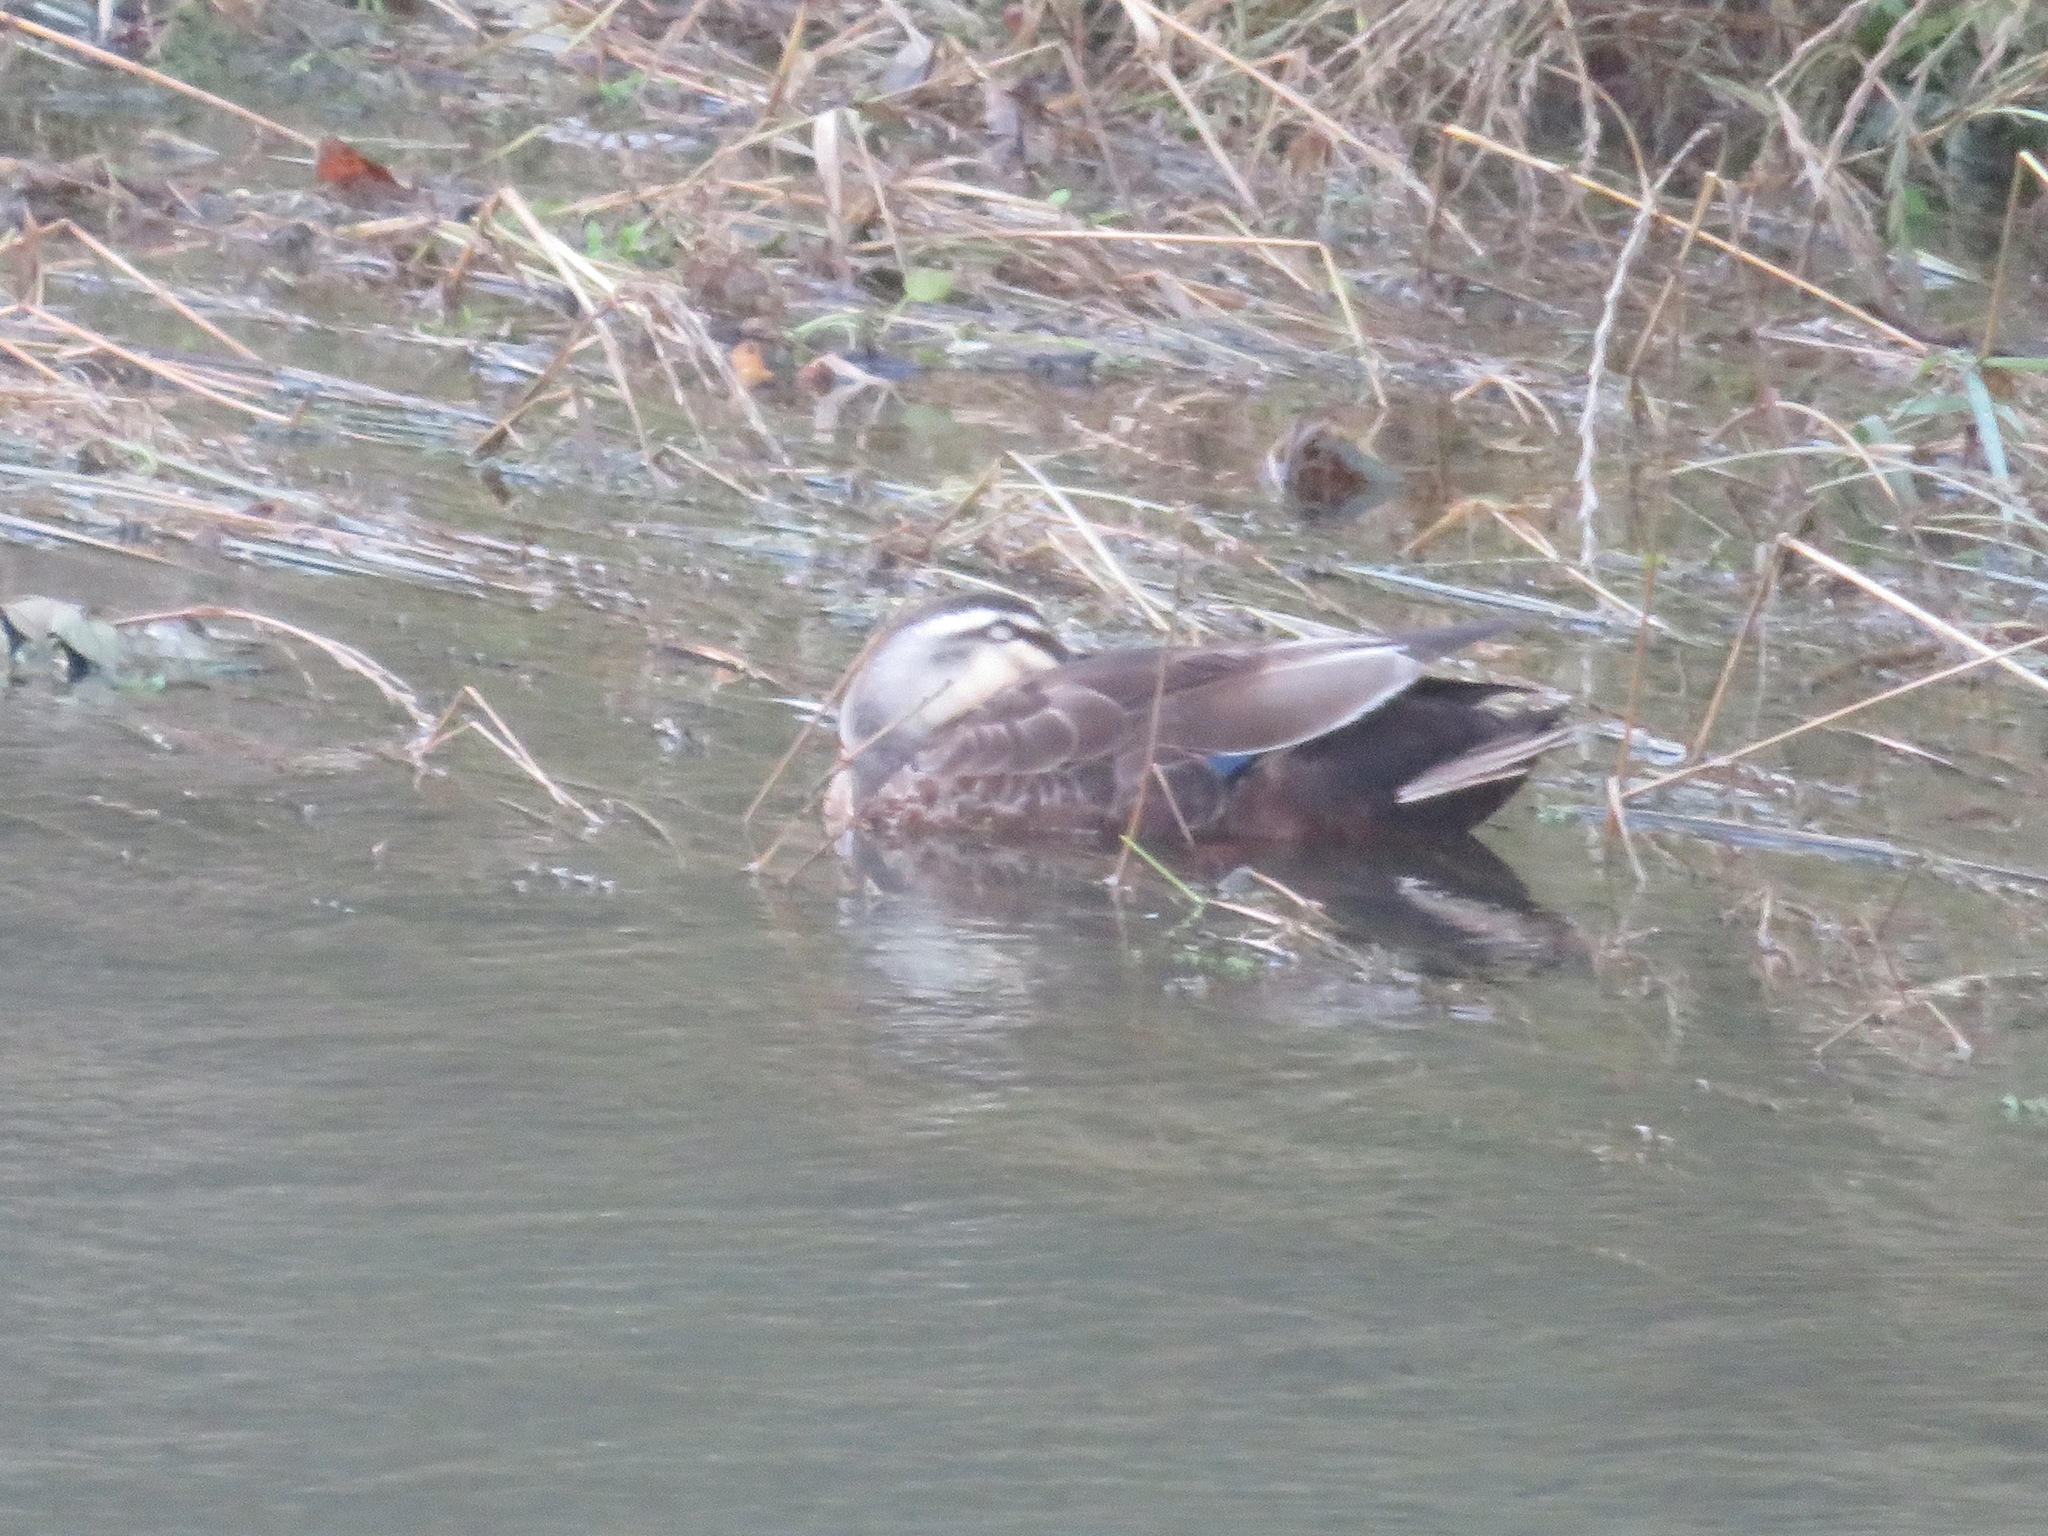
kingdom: Animalia
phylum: Chordata
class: Aves
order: Anseriformes
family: Anatidae
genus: Anas
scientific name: Anas zonorhyncha
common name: Eastern spot-billed duck
